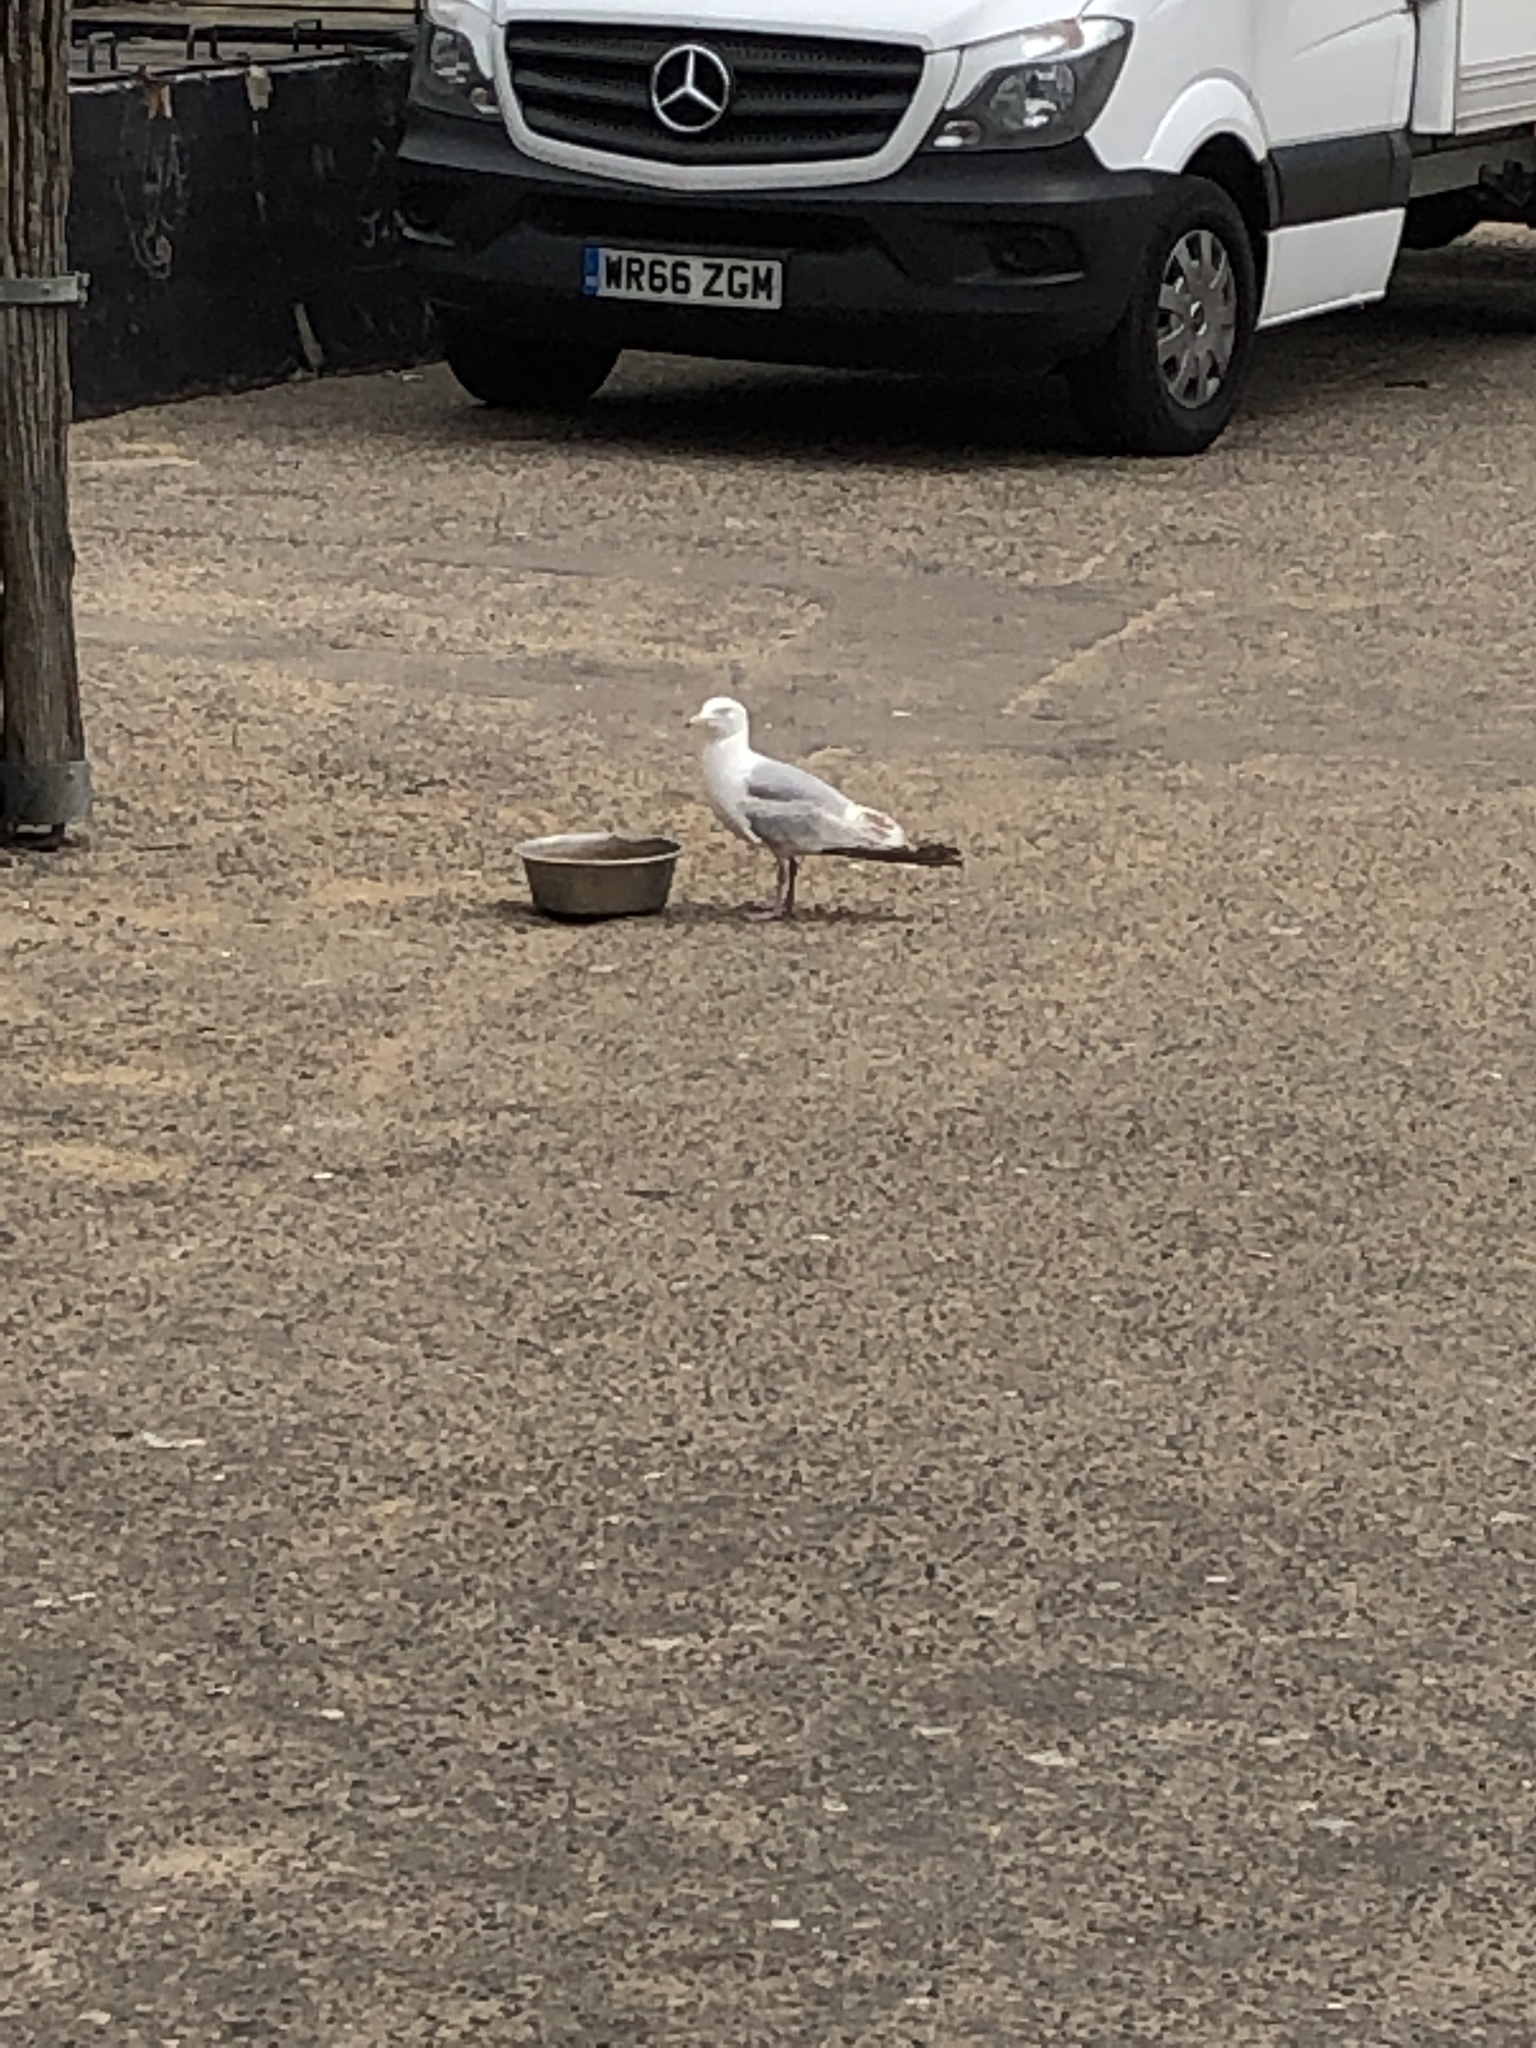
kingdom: Animalia
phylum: Chordata
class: Aves
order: Charadriiformes
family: Laridae
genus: Larus
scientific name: Larus argentatus
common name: Herring gull
